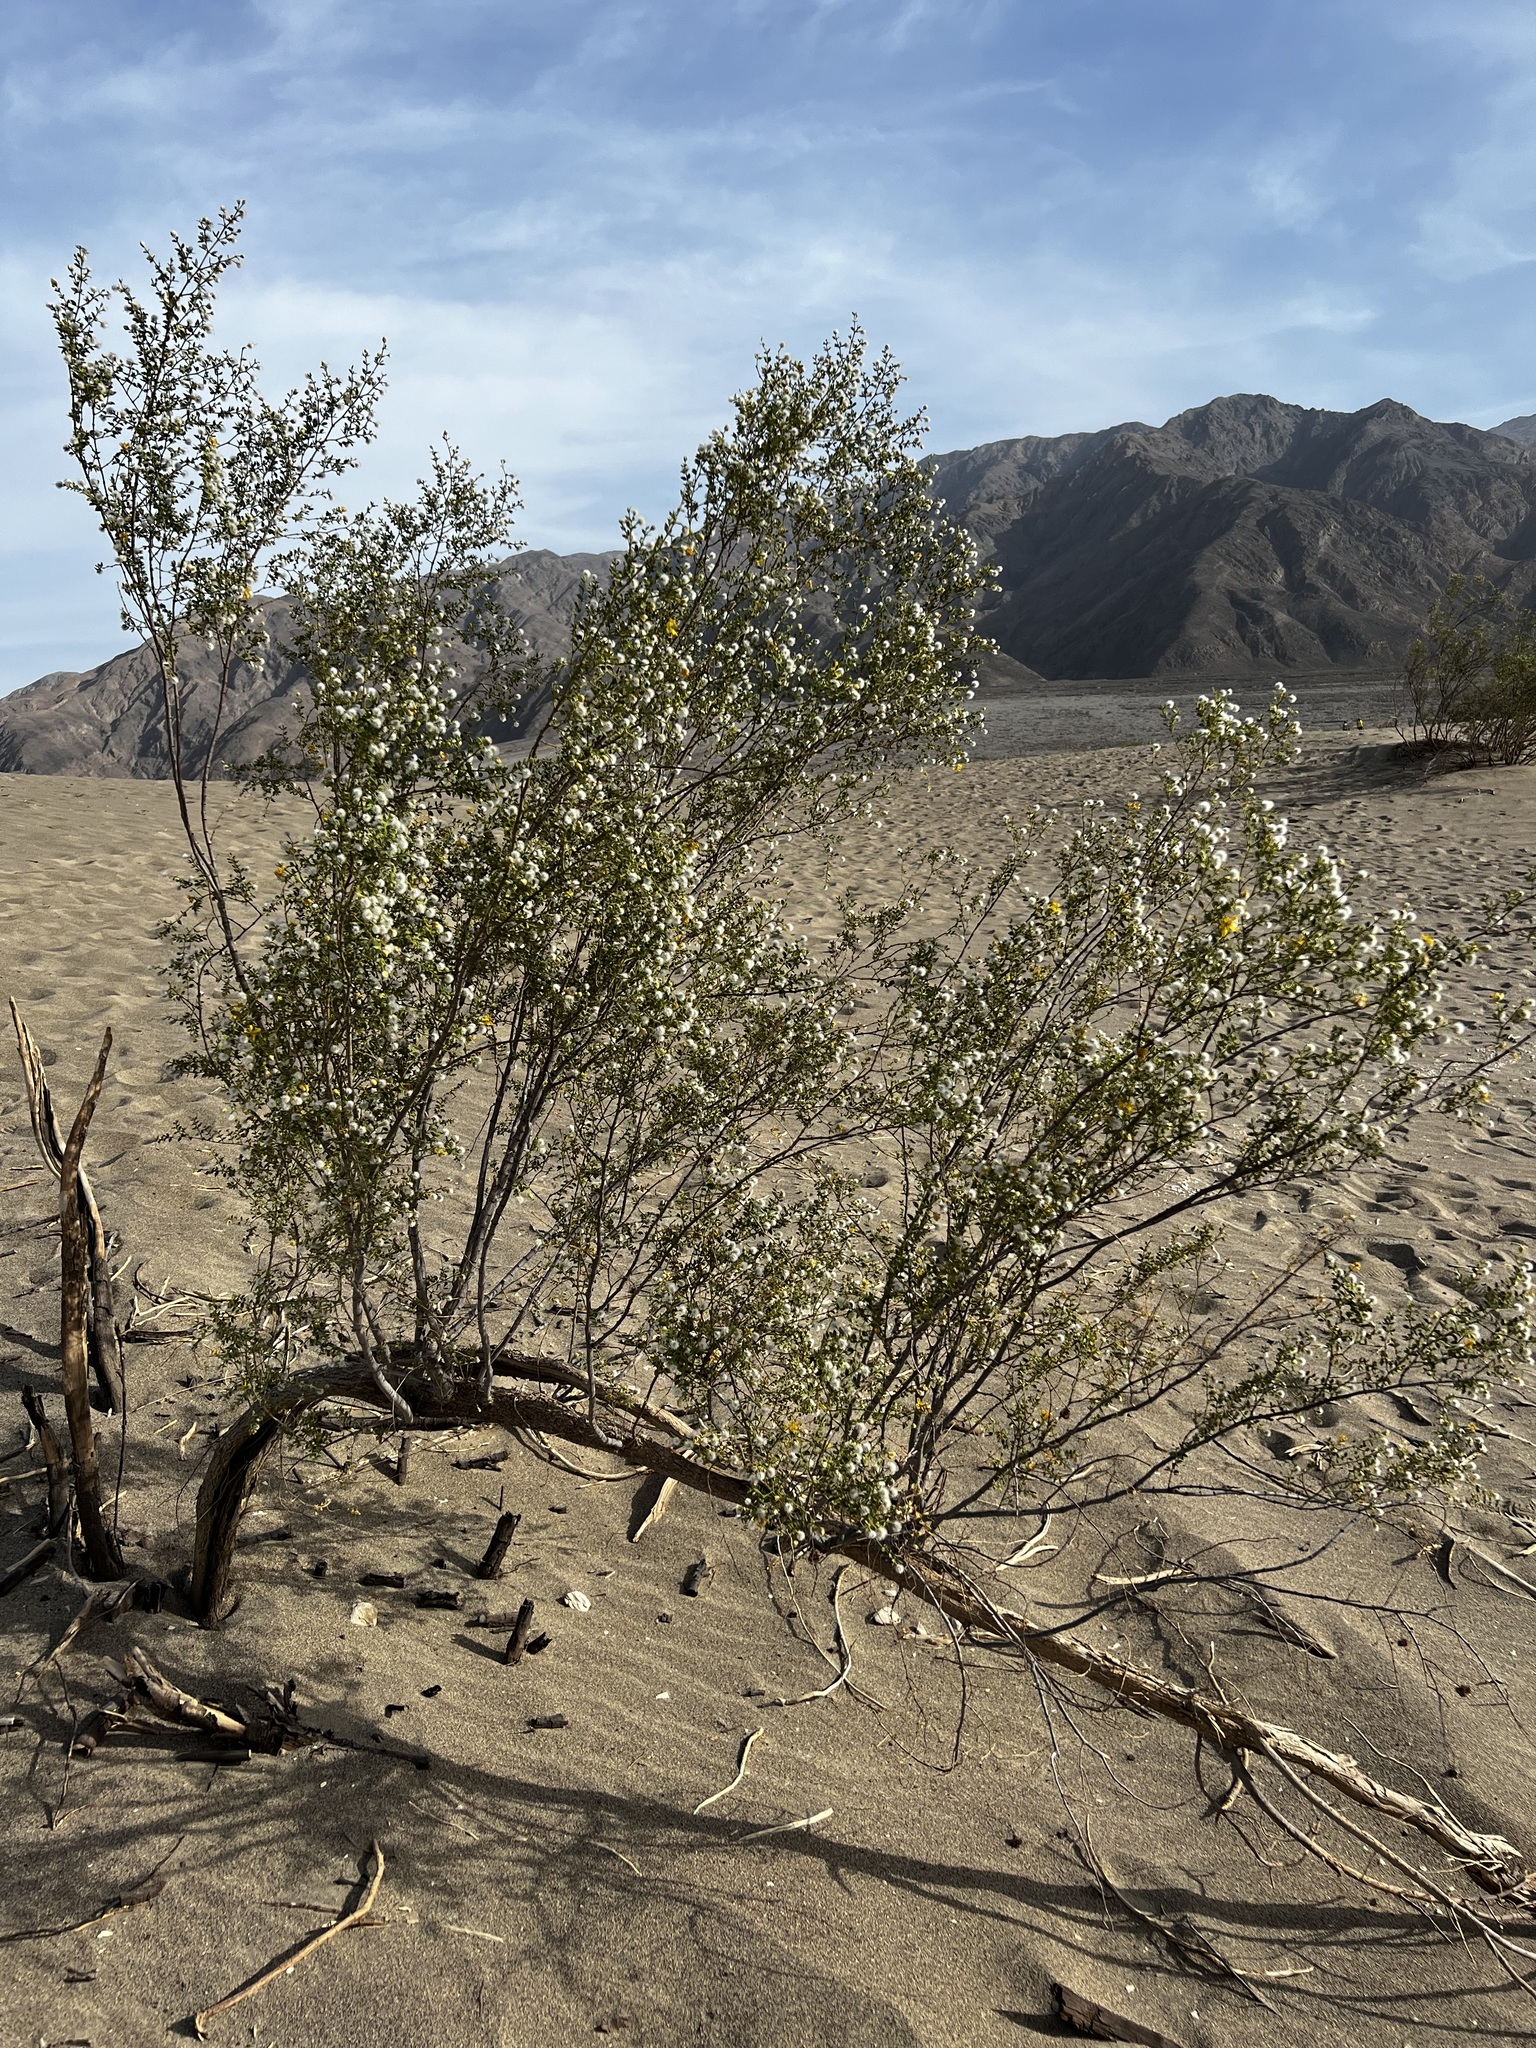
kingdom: Plantae
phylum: Tracheophyta
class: Magnoliopsida
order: Zygophyllales
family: Zygophyllaceae
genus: Larrea
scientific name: Larrea tridentata
